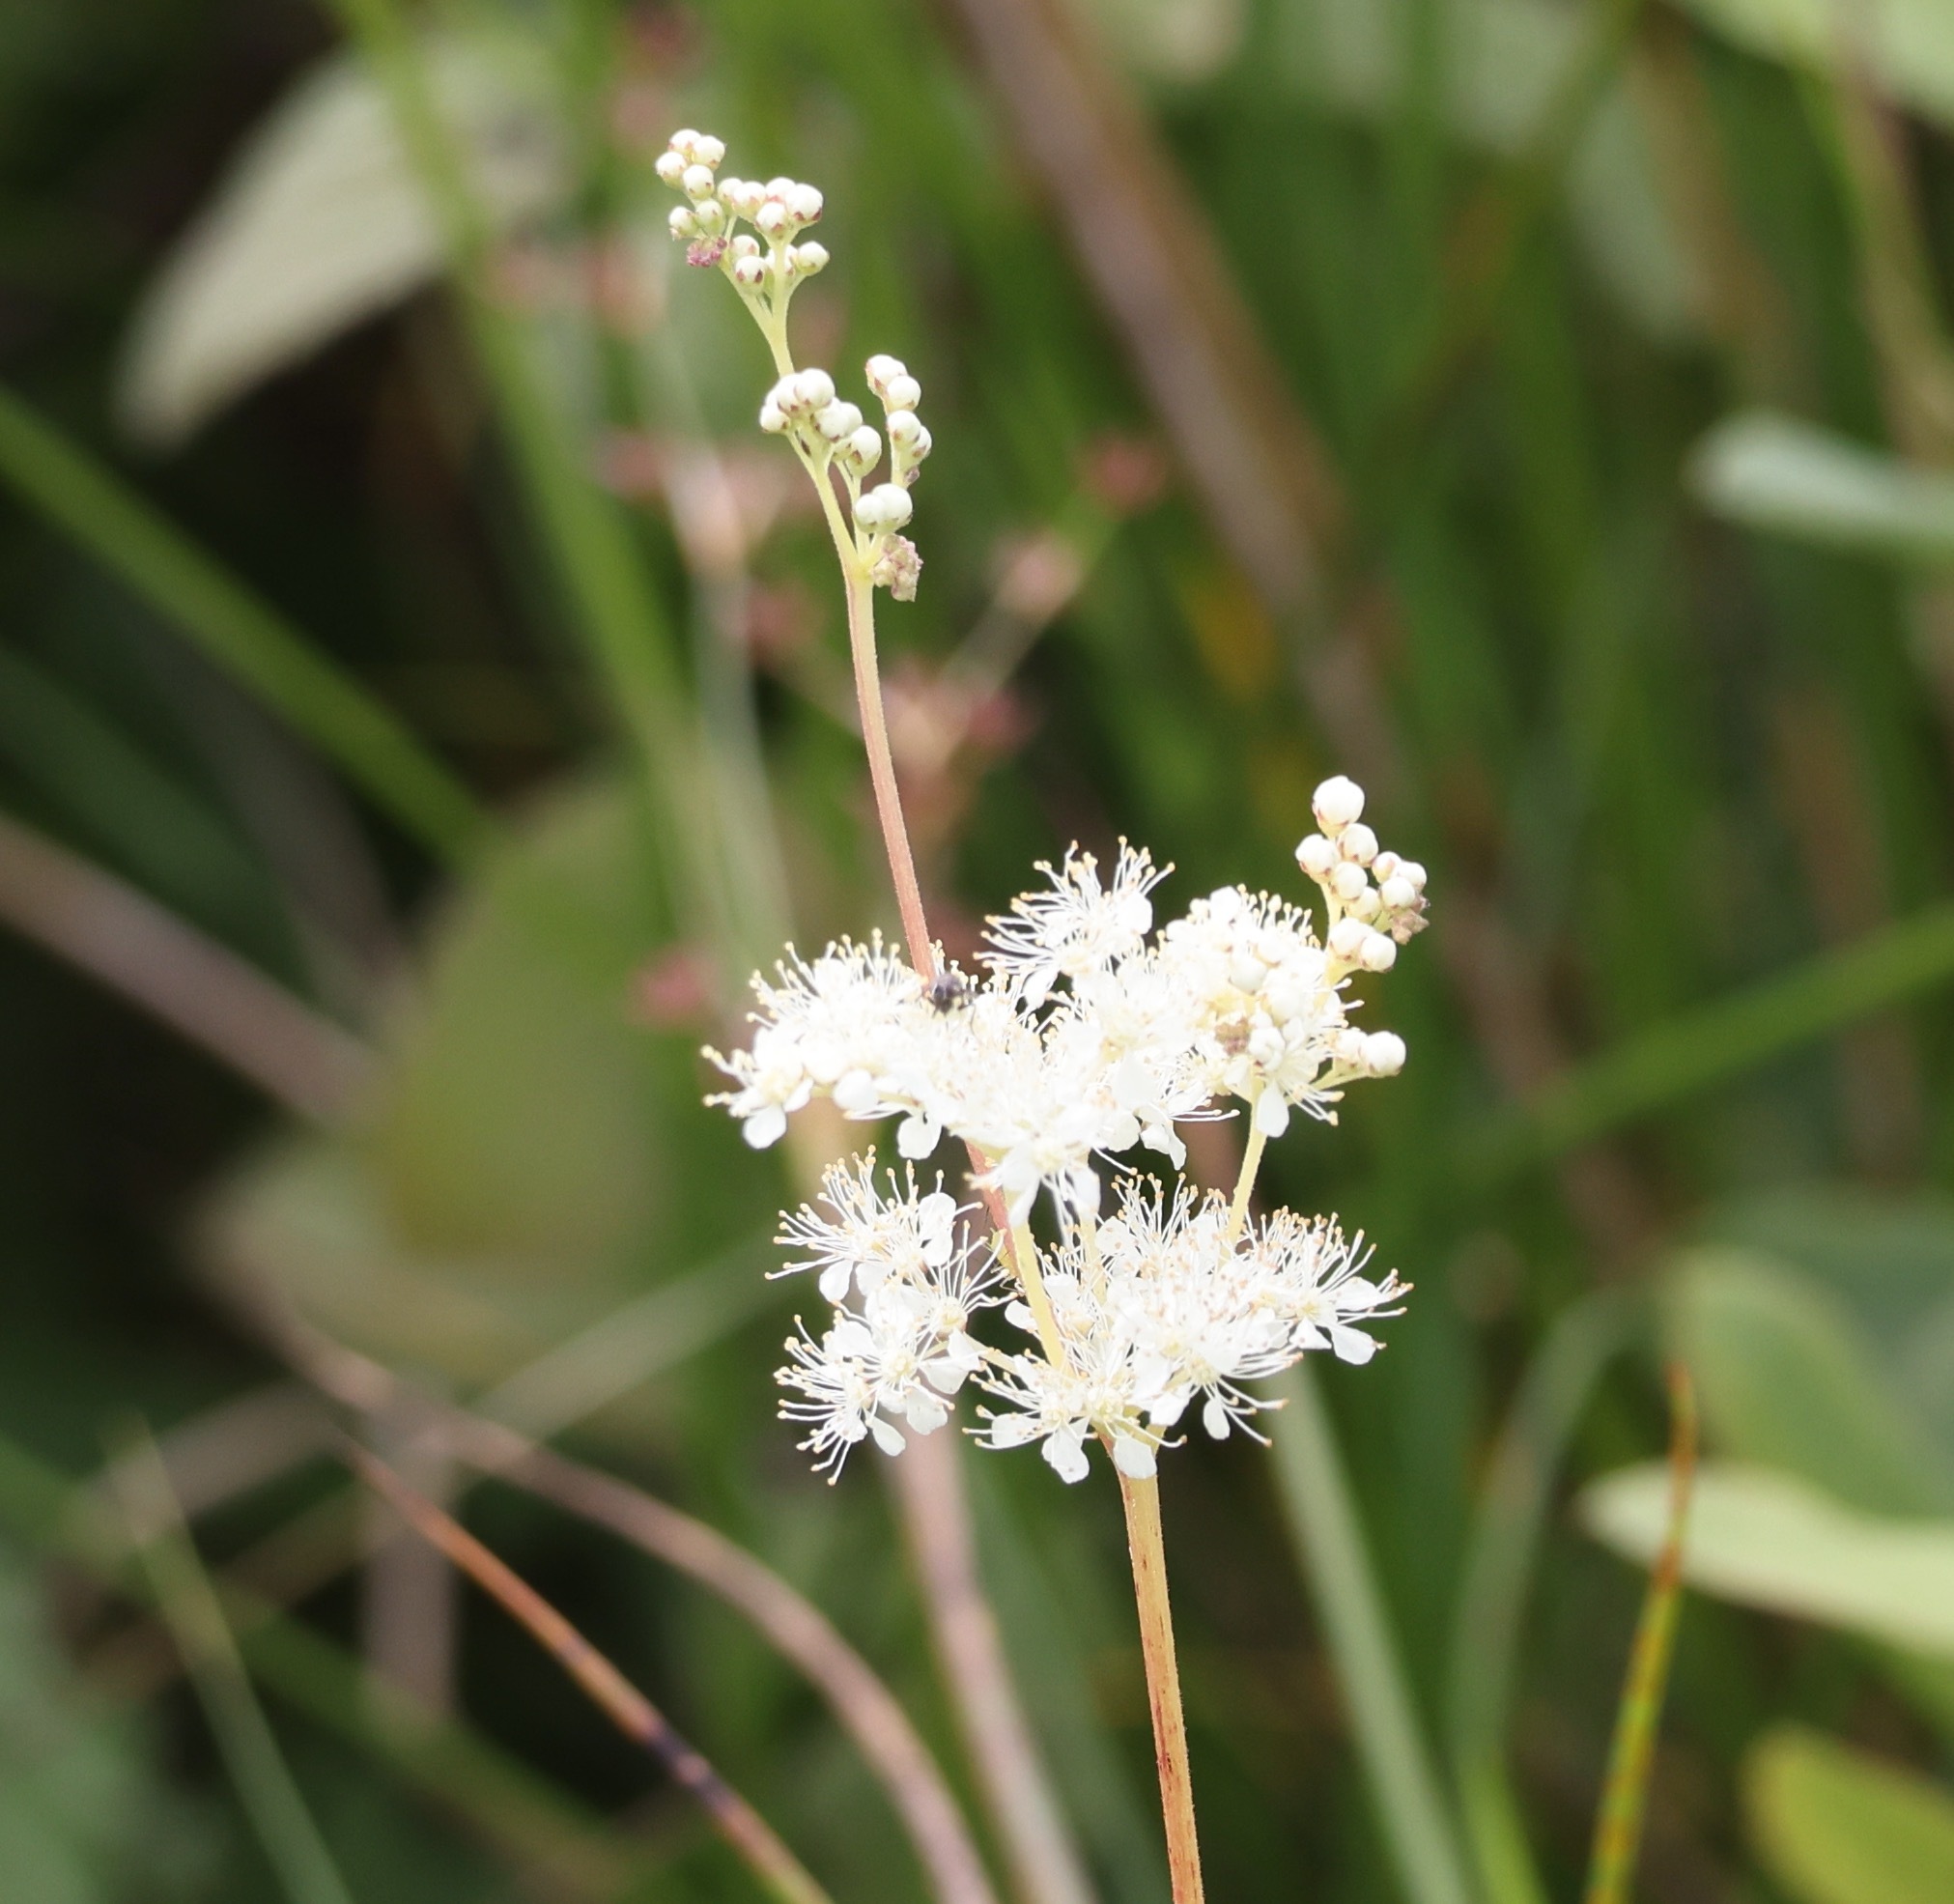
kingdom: Plantae
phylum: Tracheophyta
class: Magnoliopsida
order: Rosales
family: Rosaceae
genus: Filipendula
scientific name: Filipendula ulmaria
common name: Meadowsweet
